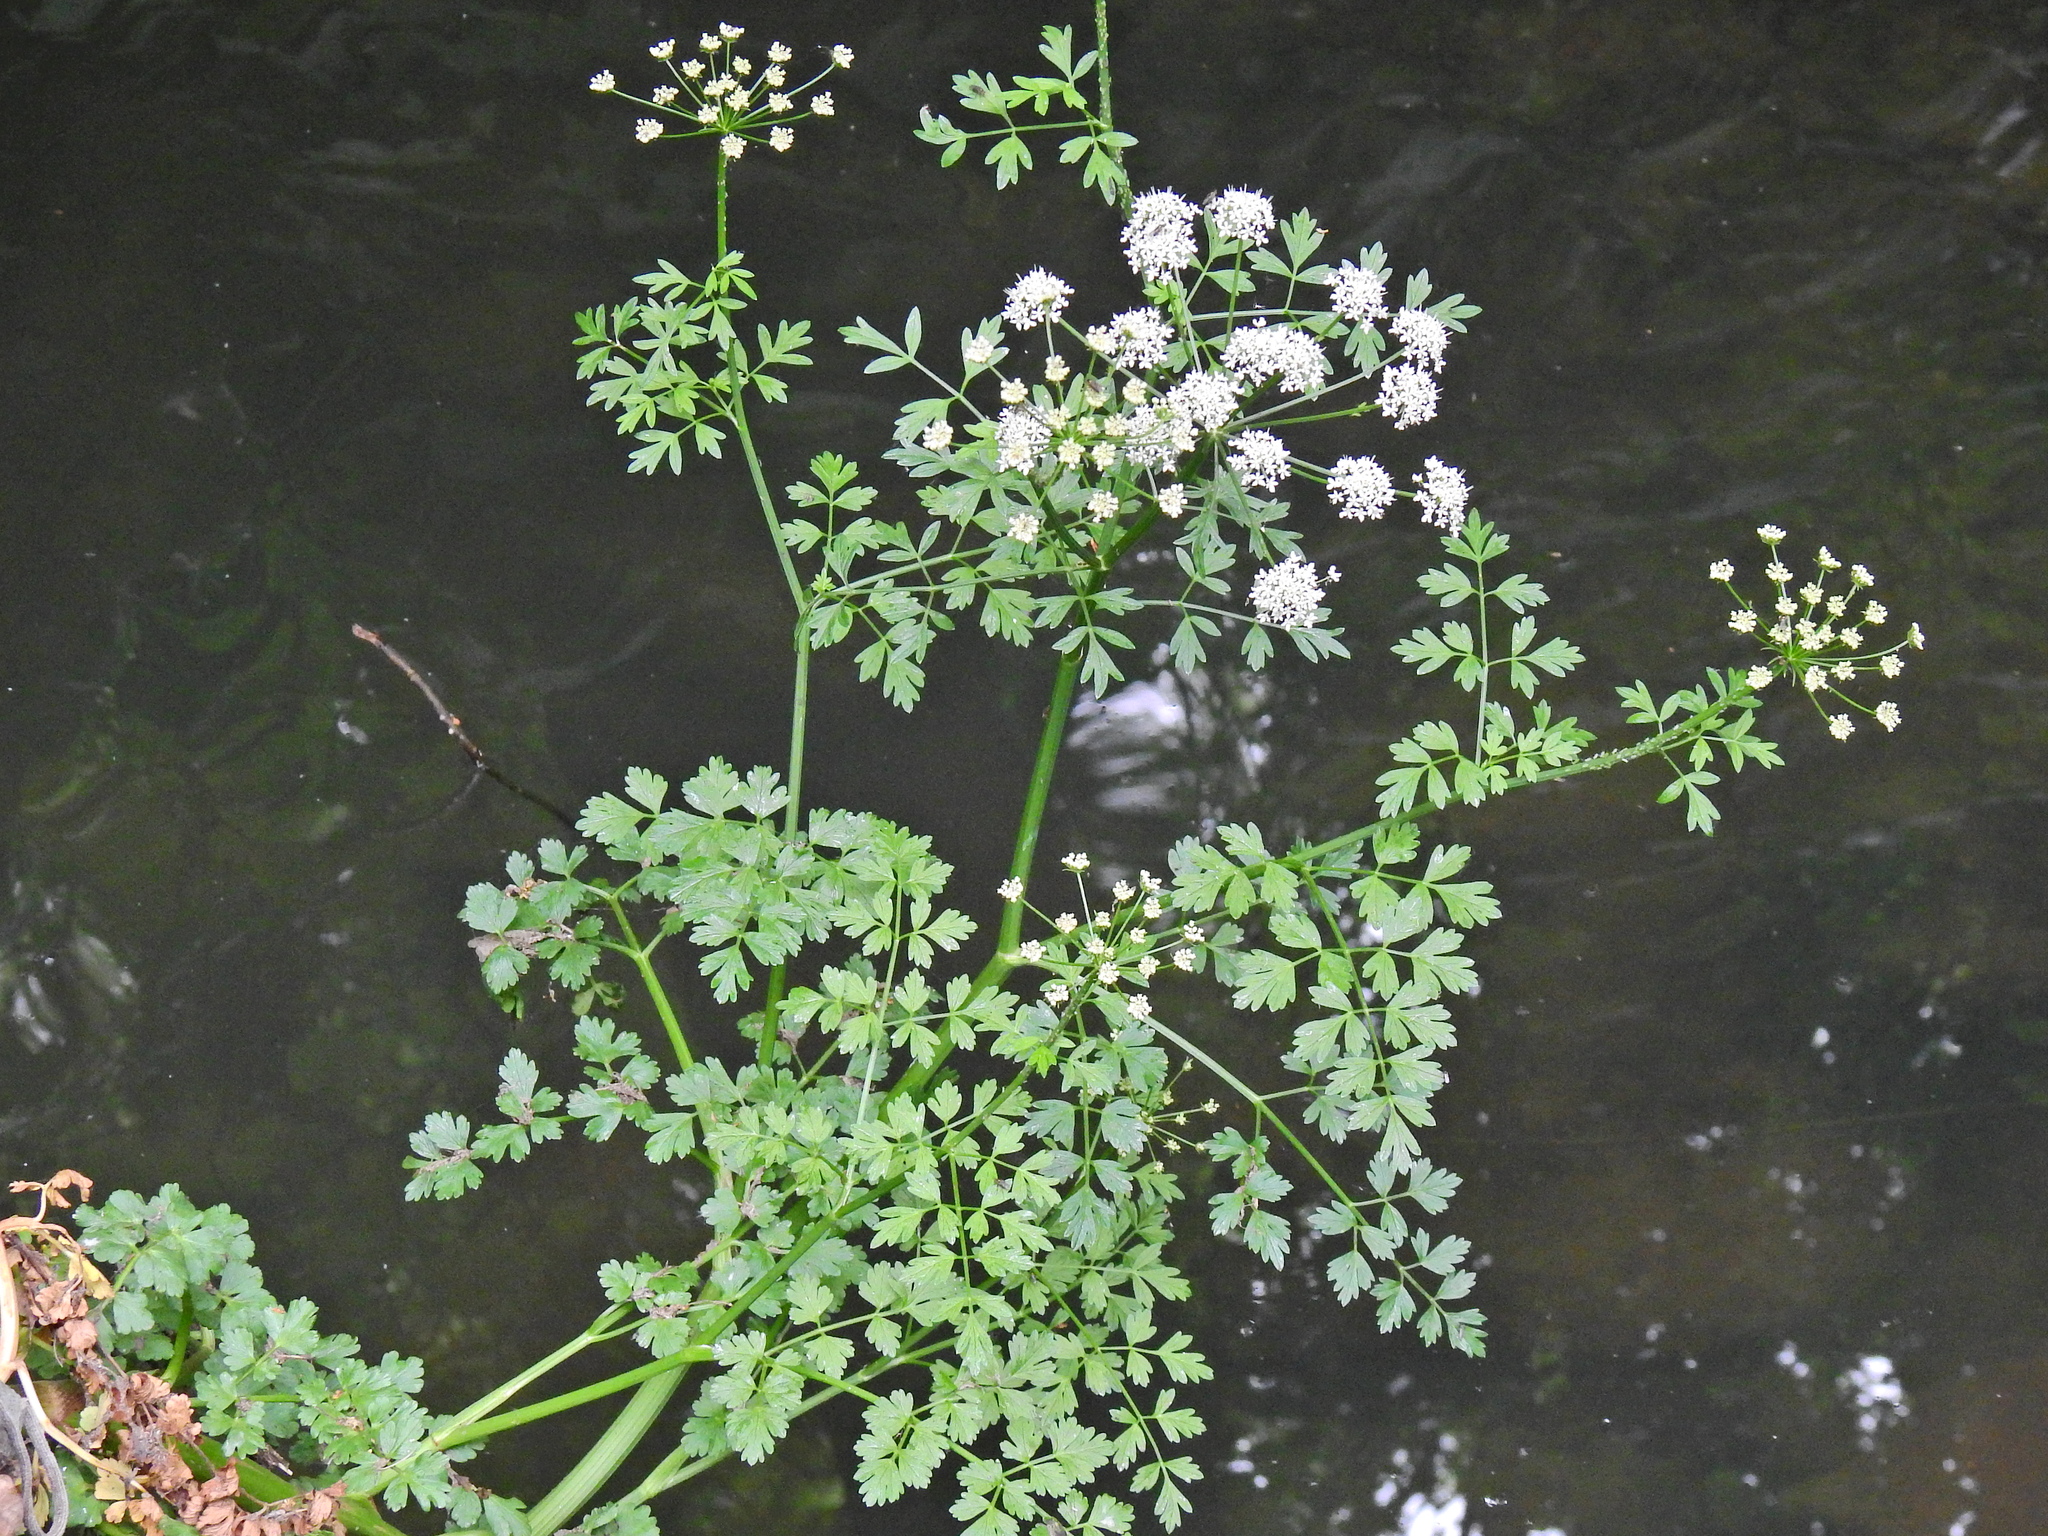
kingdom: Plantae
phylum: Tracheophyta
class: Magnoliopsida
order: Apiales
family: Apiaceae
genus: Oenanthe
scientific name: Oenanthe crocata
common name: Hemlock water-dropwort
